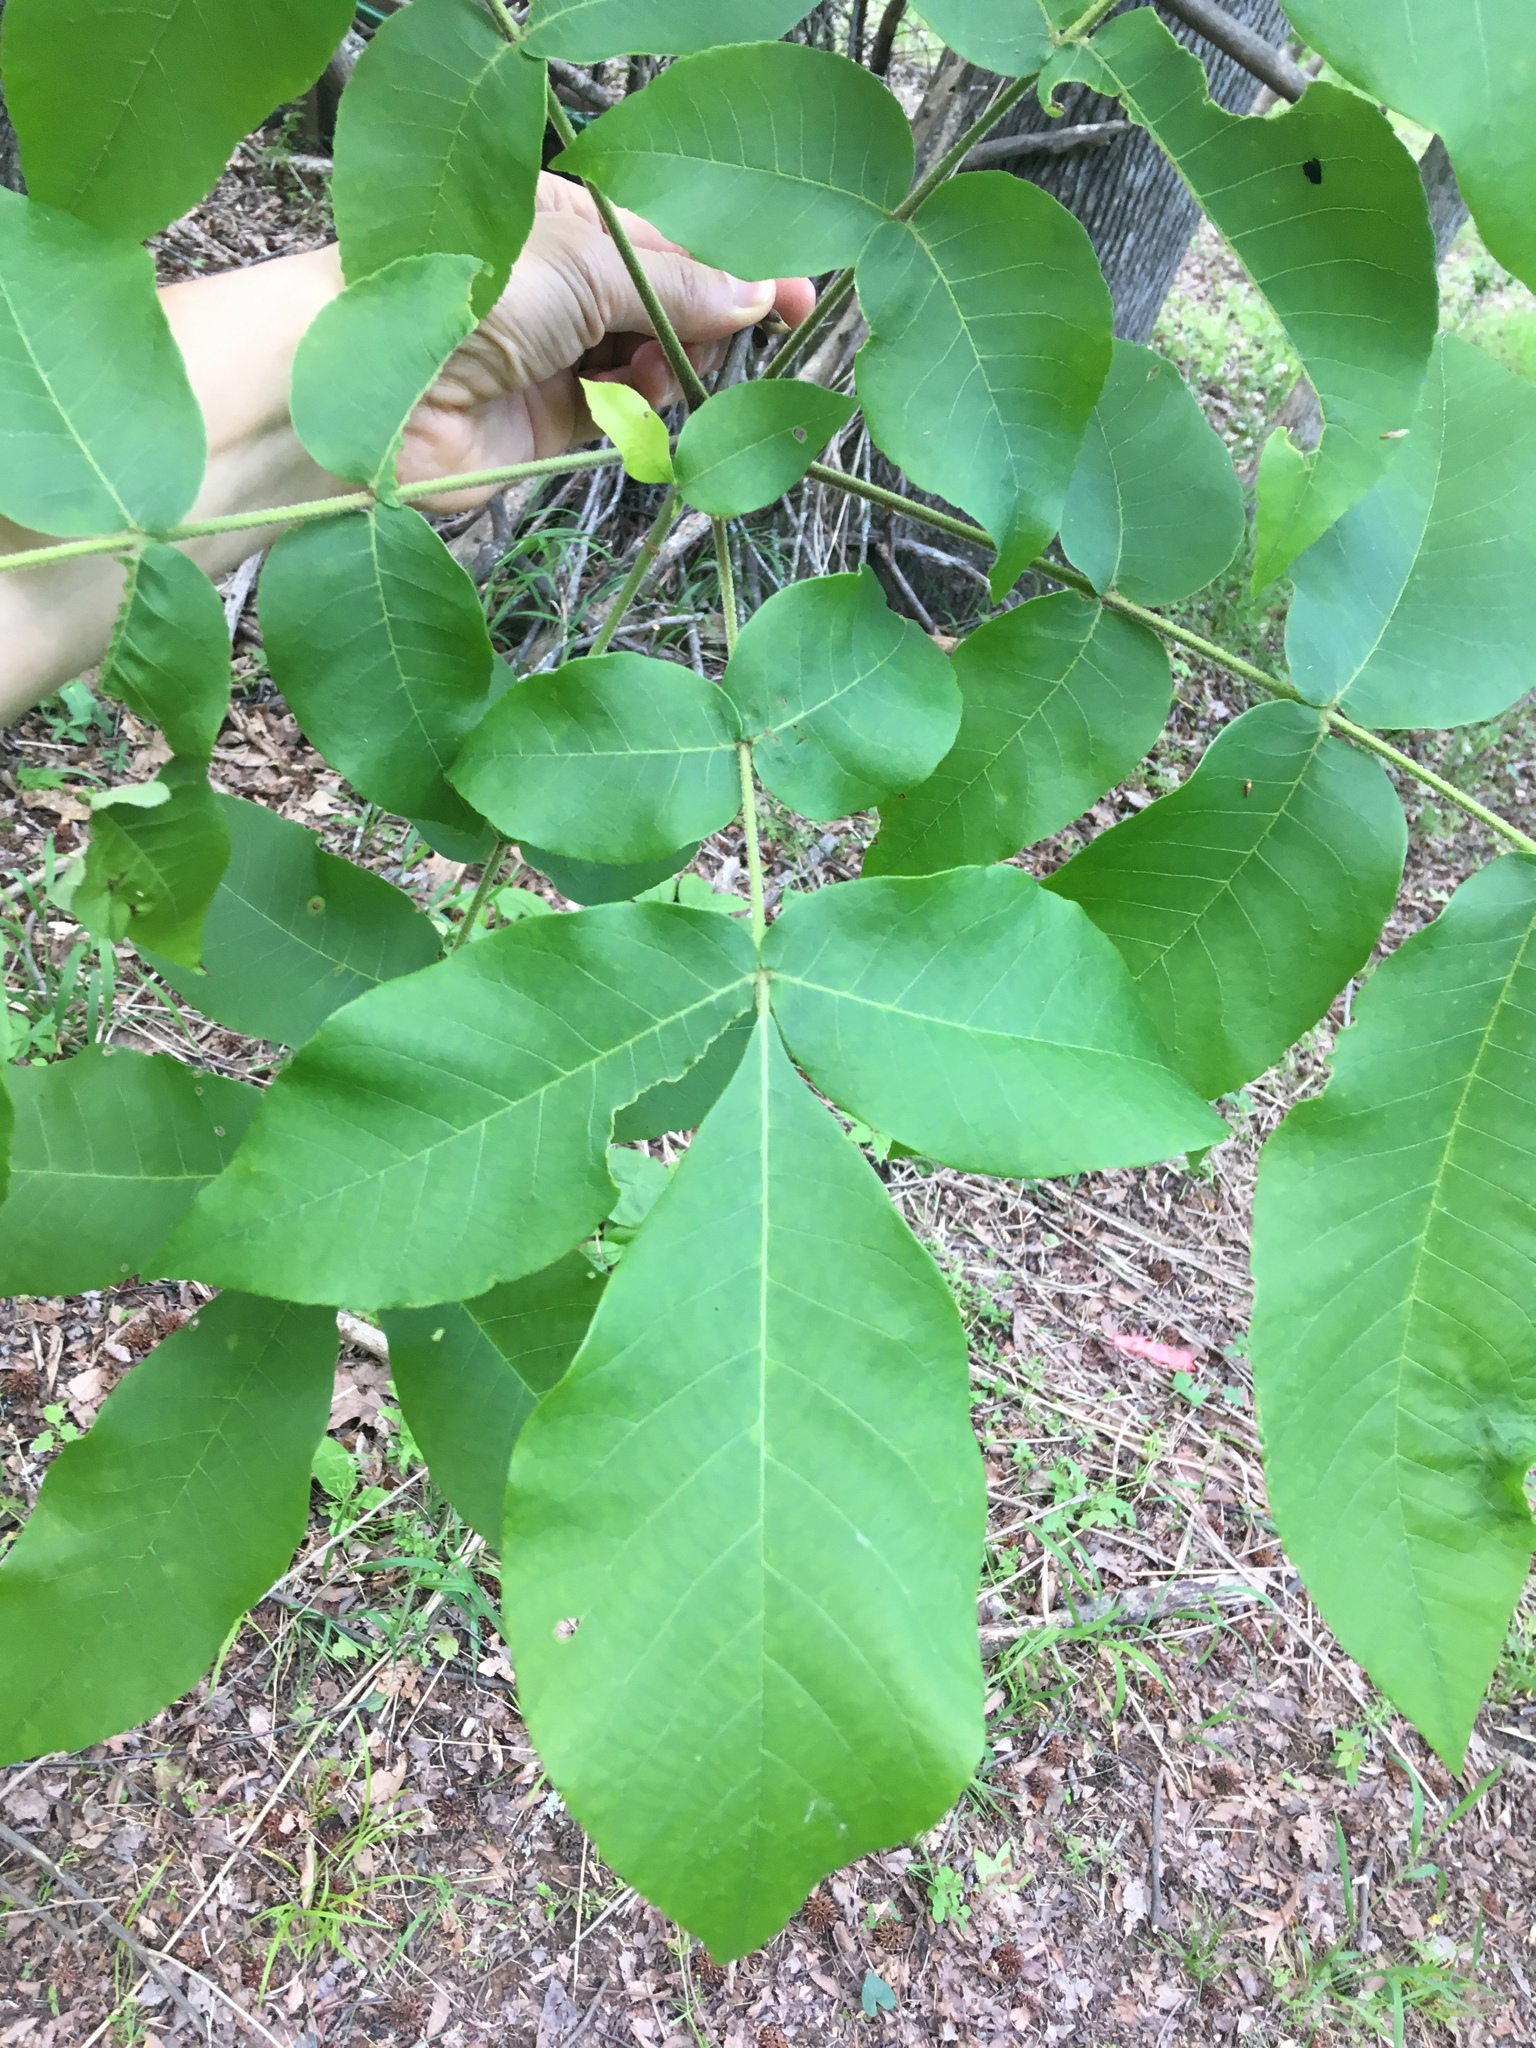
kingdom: Plantae
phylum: Tracheophyta
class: Magnoliopsida
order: Fagales
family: Juglandaceae
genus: Carya
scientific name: Carya alba
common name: Mockernut hickory
